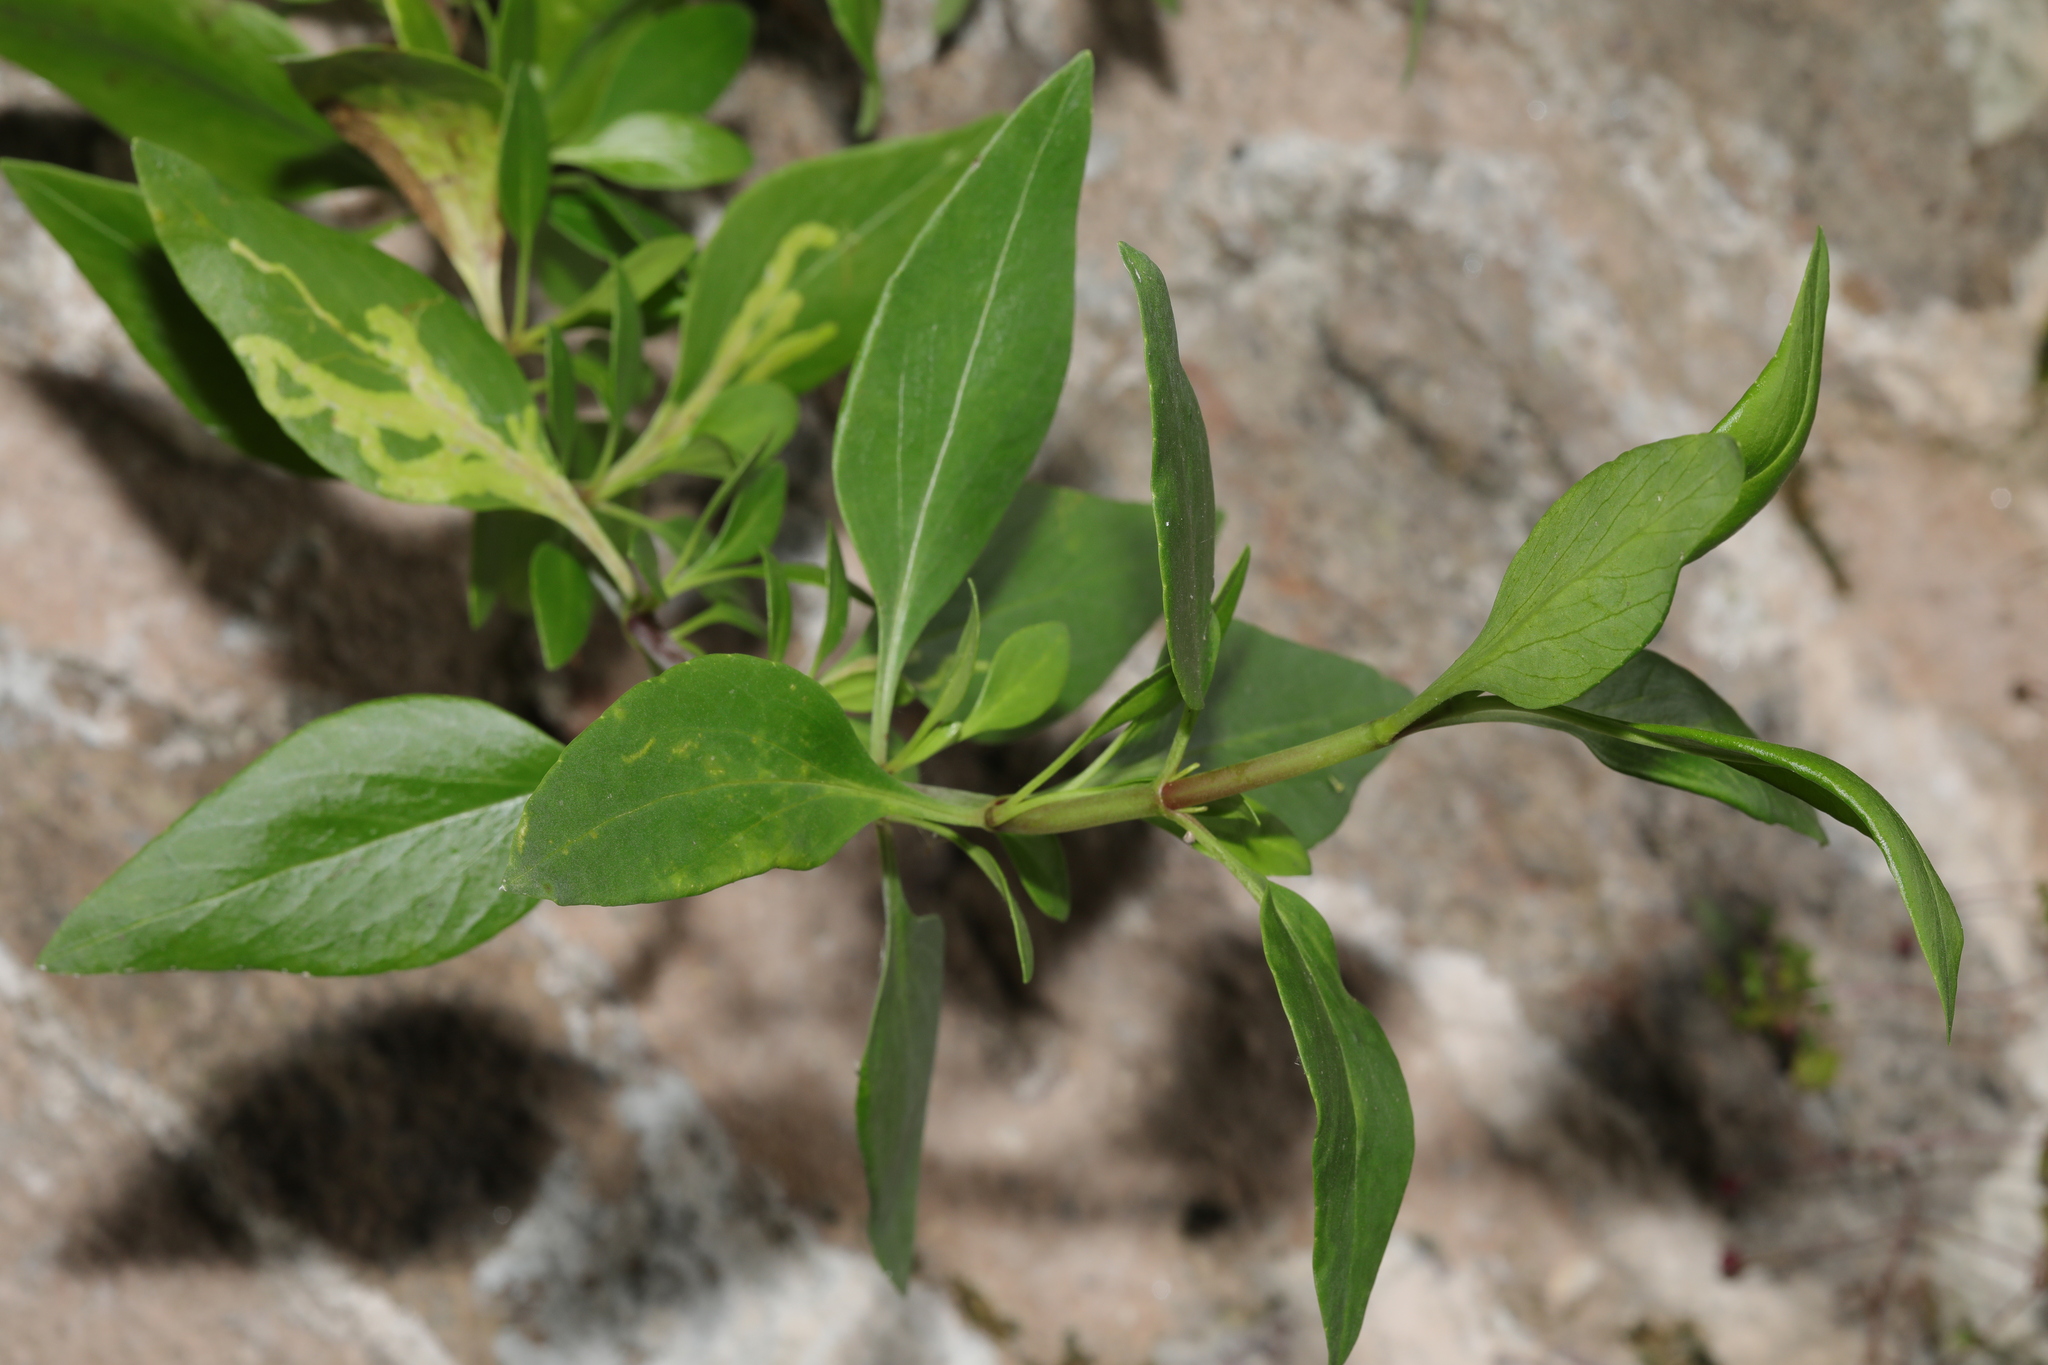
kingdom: Plantae
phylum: Tracheophyta
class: Magnoliopsida
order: Dipsacales
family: Caprifoliaceae
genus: Centranthus
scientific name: Centranthus ruber
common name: Red valerian
